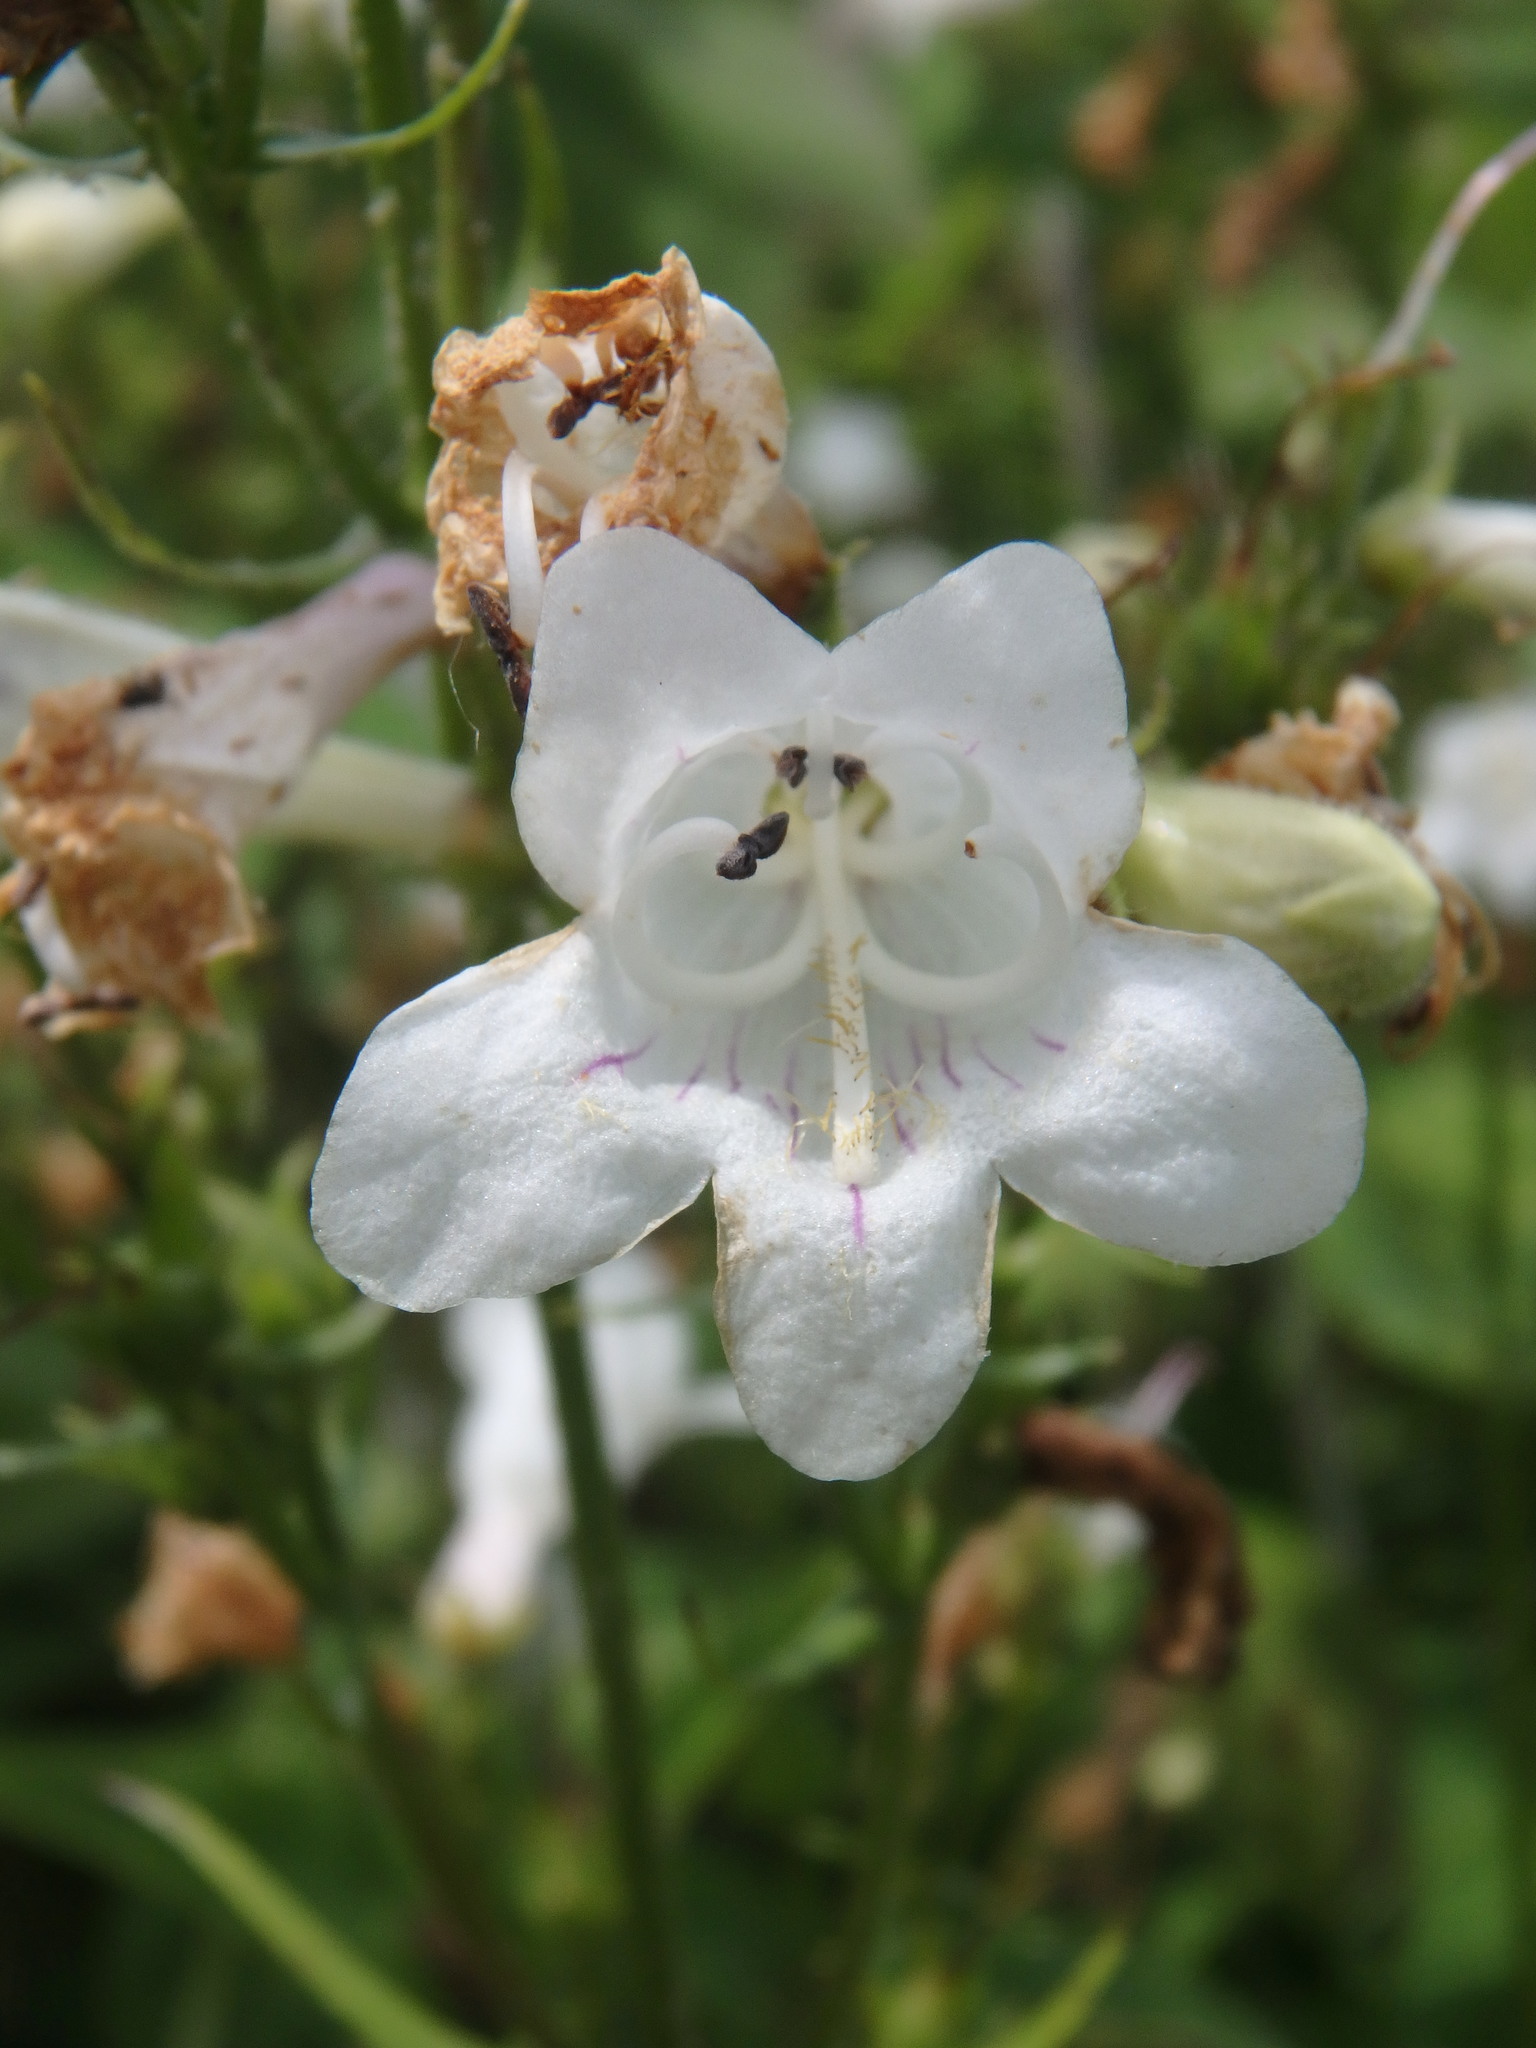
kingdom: Plantae
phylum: Tracheophyta
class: Magnoliopsida
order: Lamiales
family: Plantaginaceae
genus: Penstemon
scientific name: Penstemon digitalis
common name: Foxglove beardtongue
